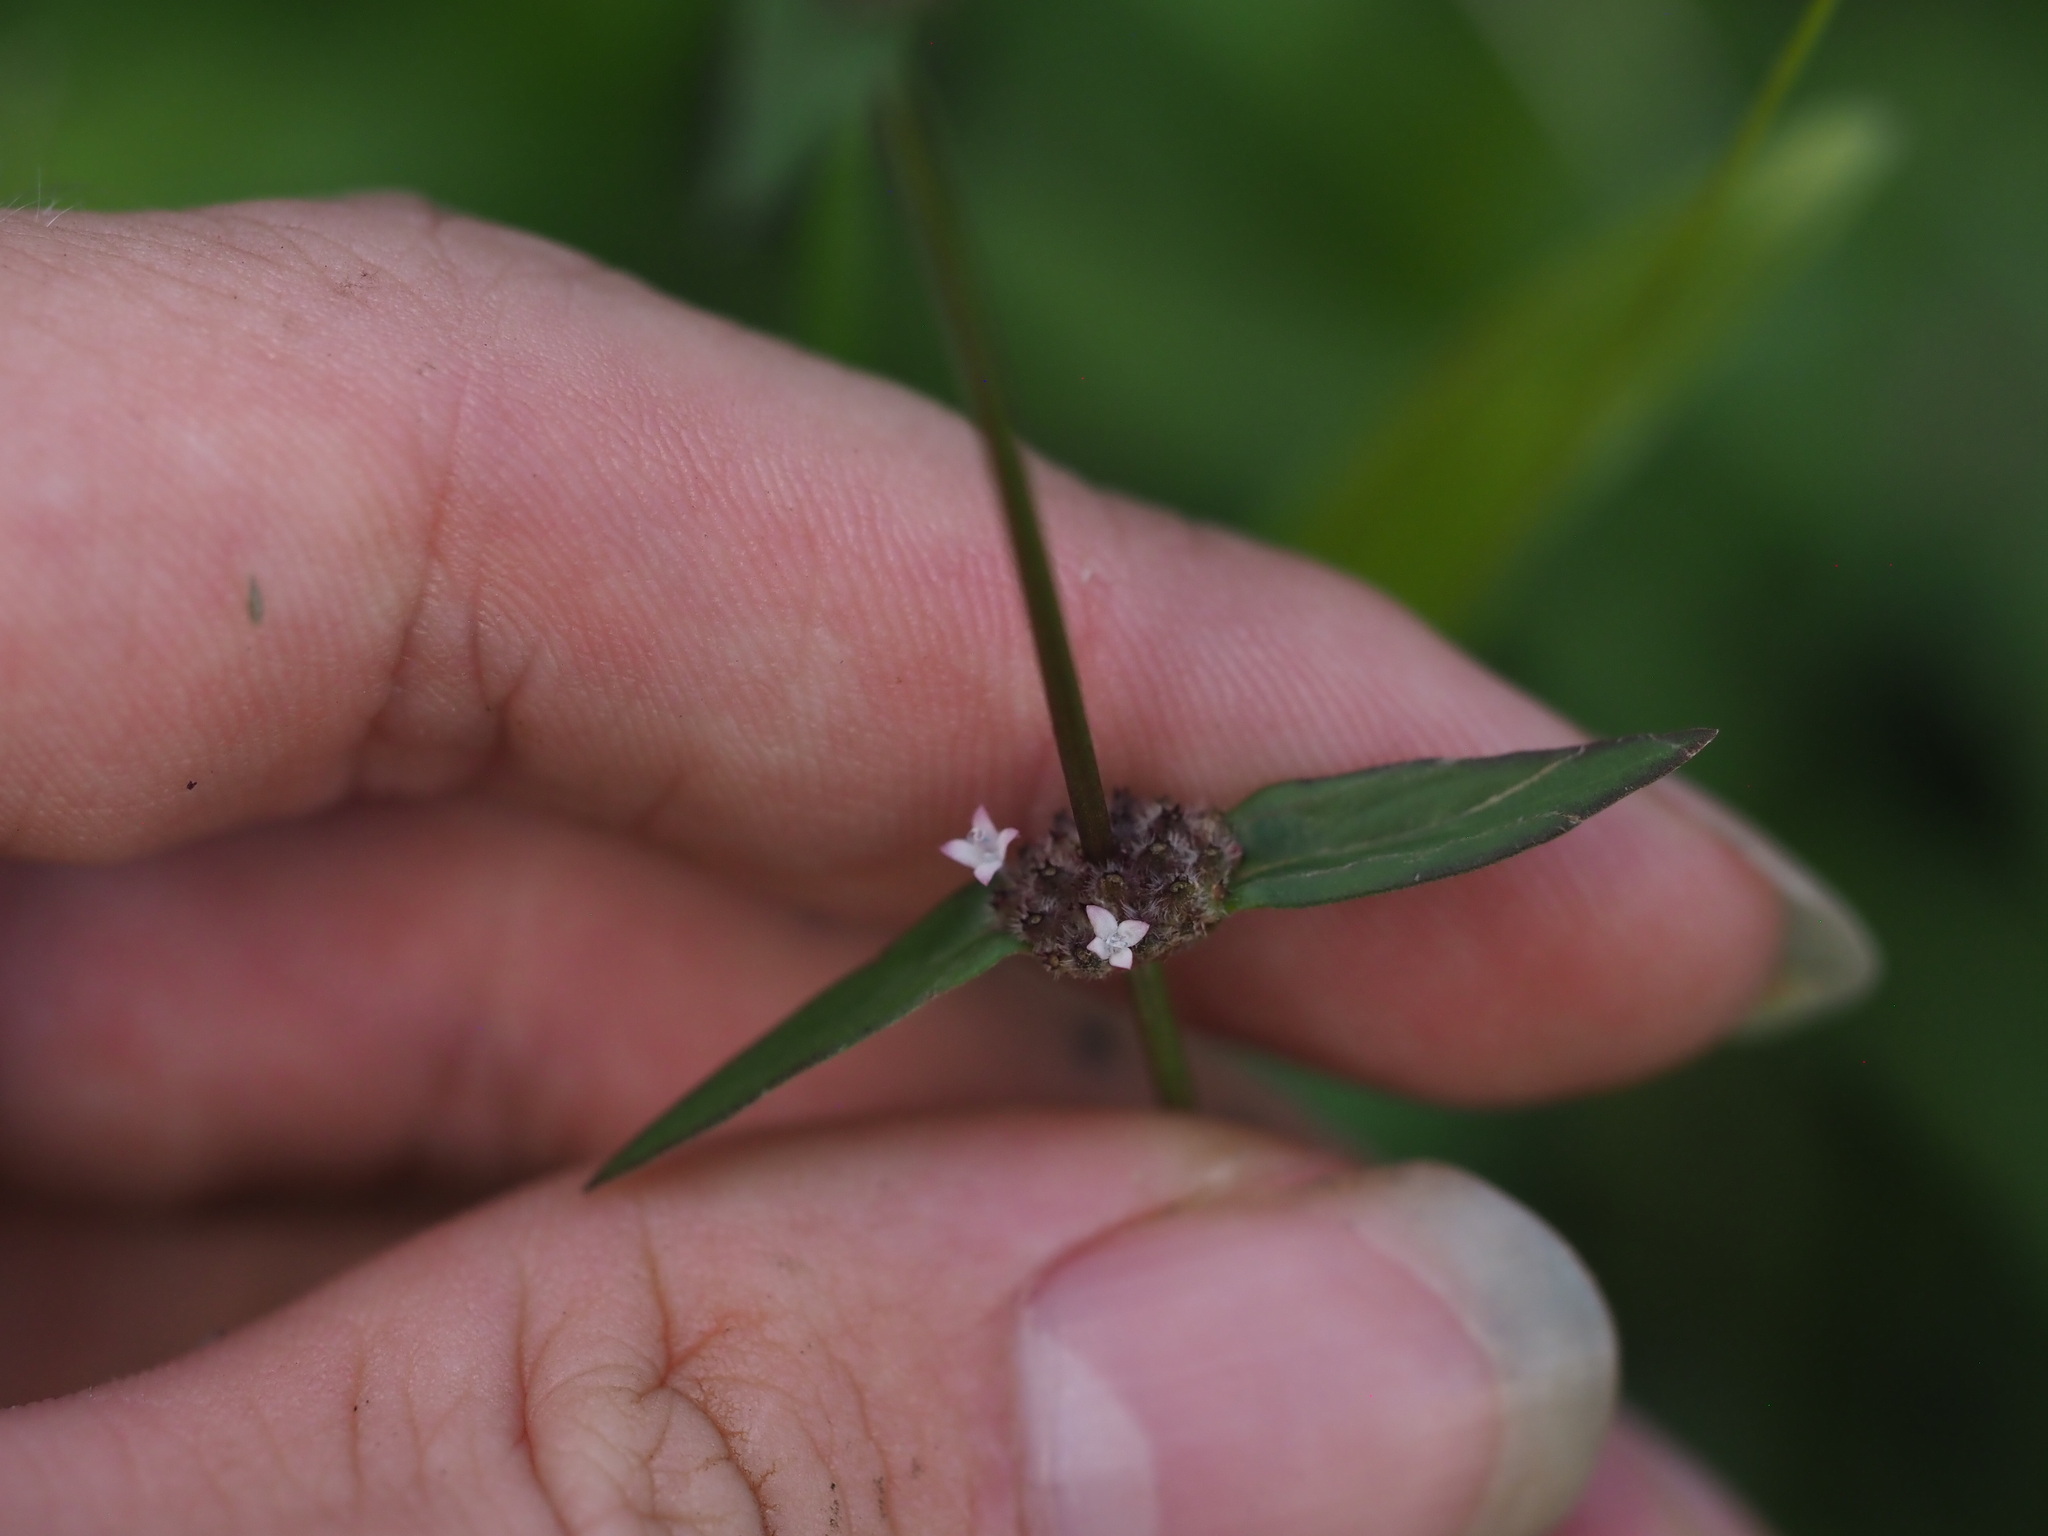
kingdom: Plantae
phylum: Tracheophyta
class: Magnoliopsida
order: Gentianales
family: Rubiaceae
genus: Spermacoce
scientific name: Spermacoce remota
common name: Woodland false buttonweed
